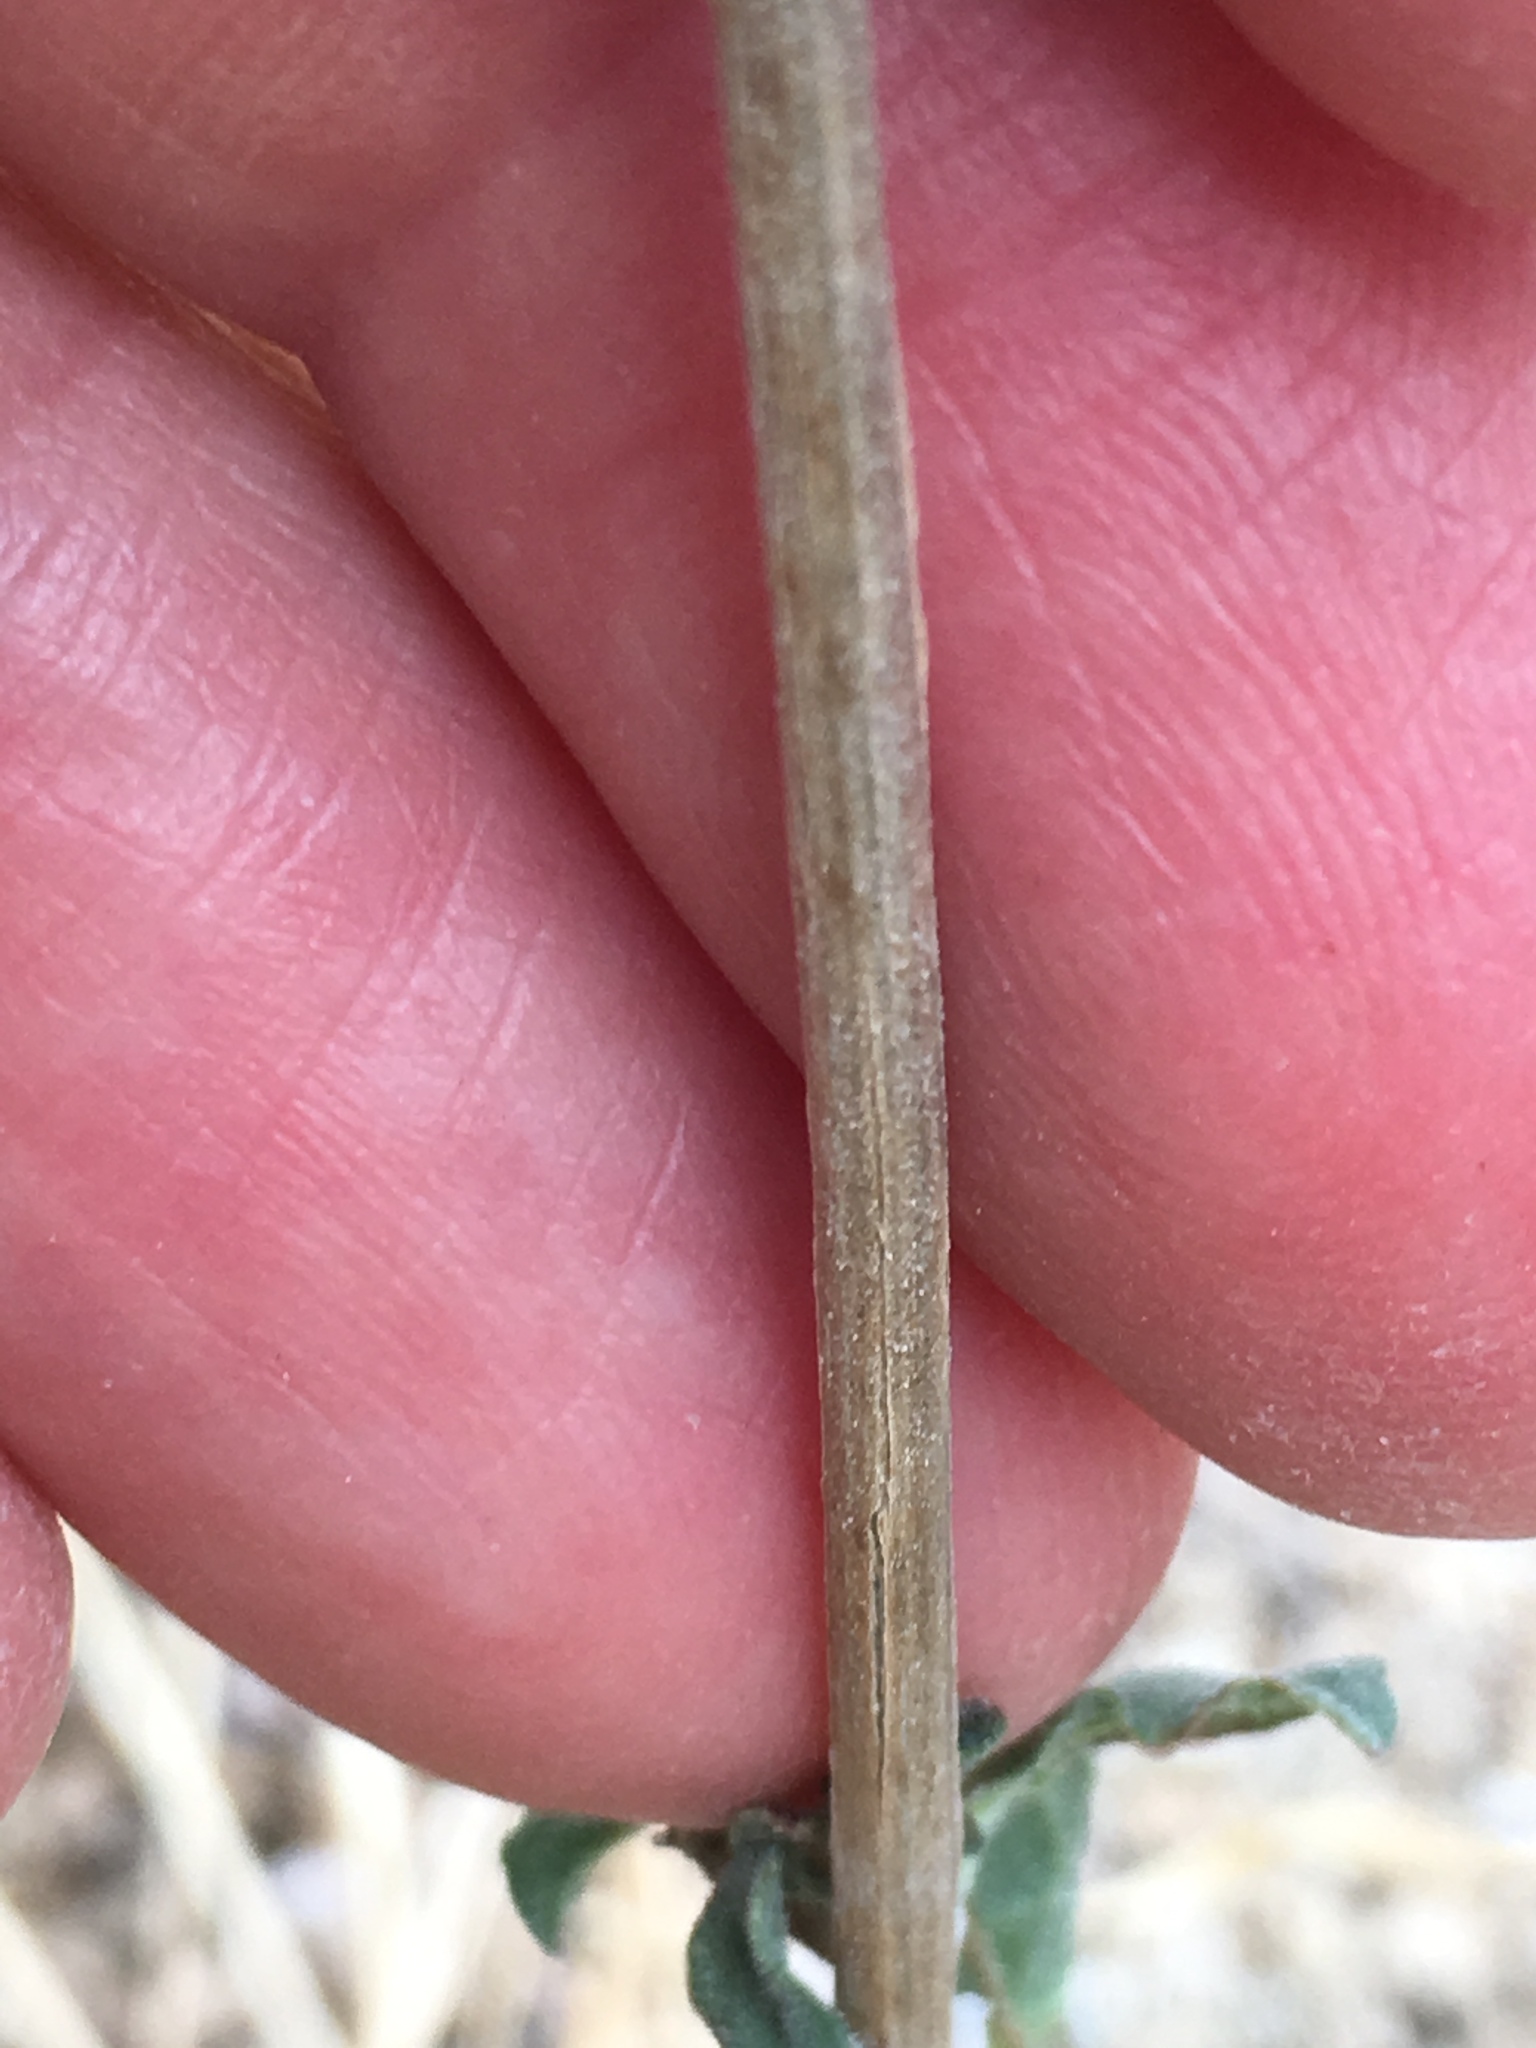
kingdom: Plantae
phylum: Tracheophyta
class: Magnoliopsida
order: Asterales
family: Asteraceae
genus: Bahiopsis
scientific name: Bahiopsis parishii
